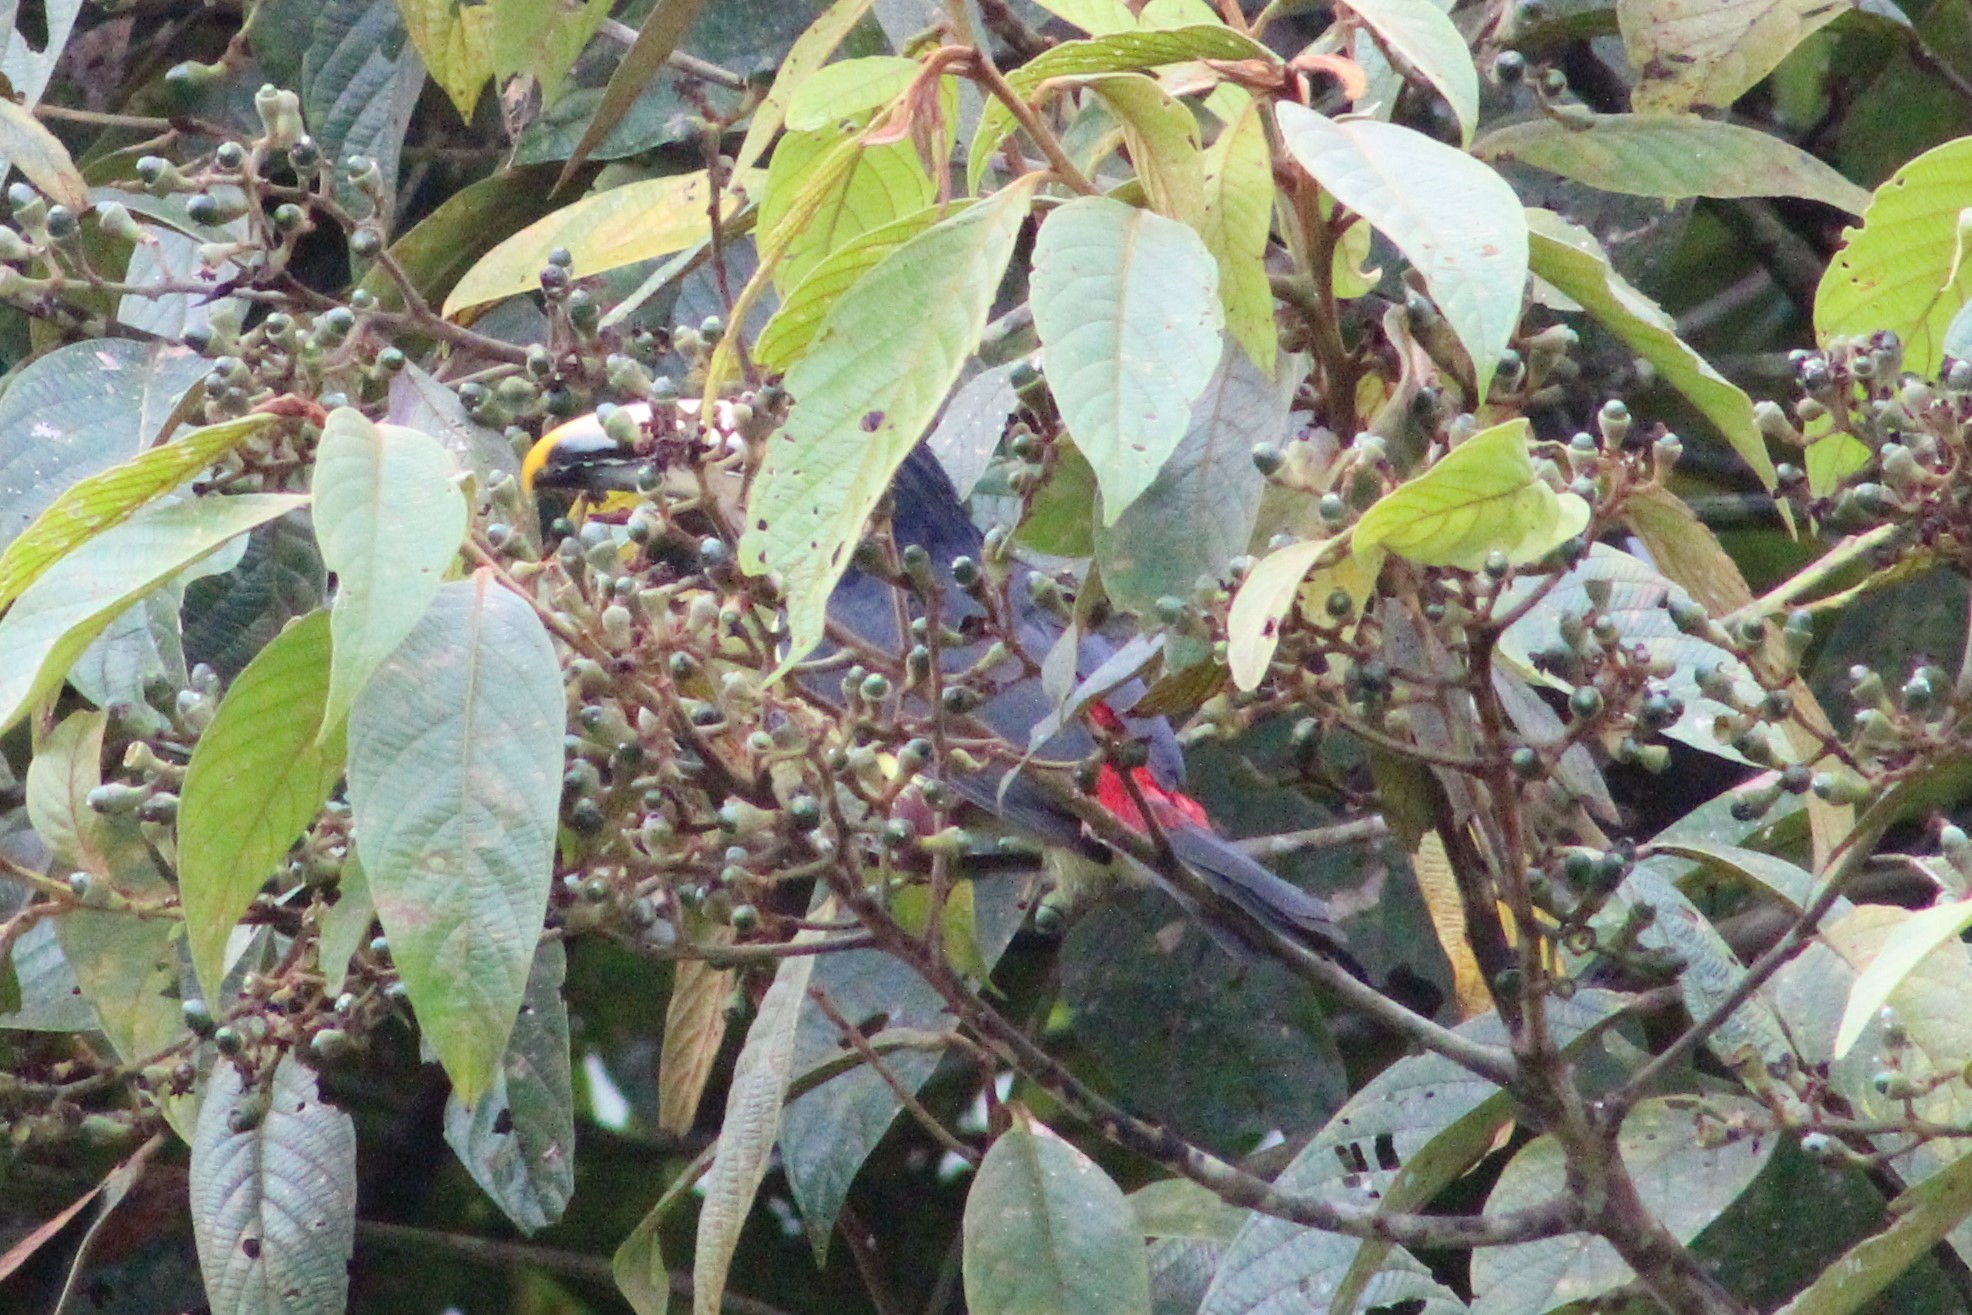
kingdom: Animalia
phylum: Chordata
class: Aves
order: Piciformes
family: Ramphastidae
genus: Pteroglossus
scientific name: Pteroglossus torquatus
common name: Collared aracari
